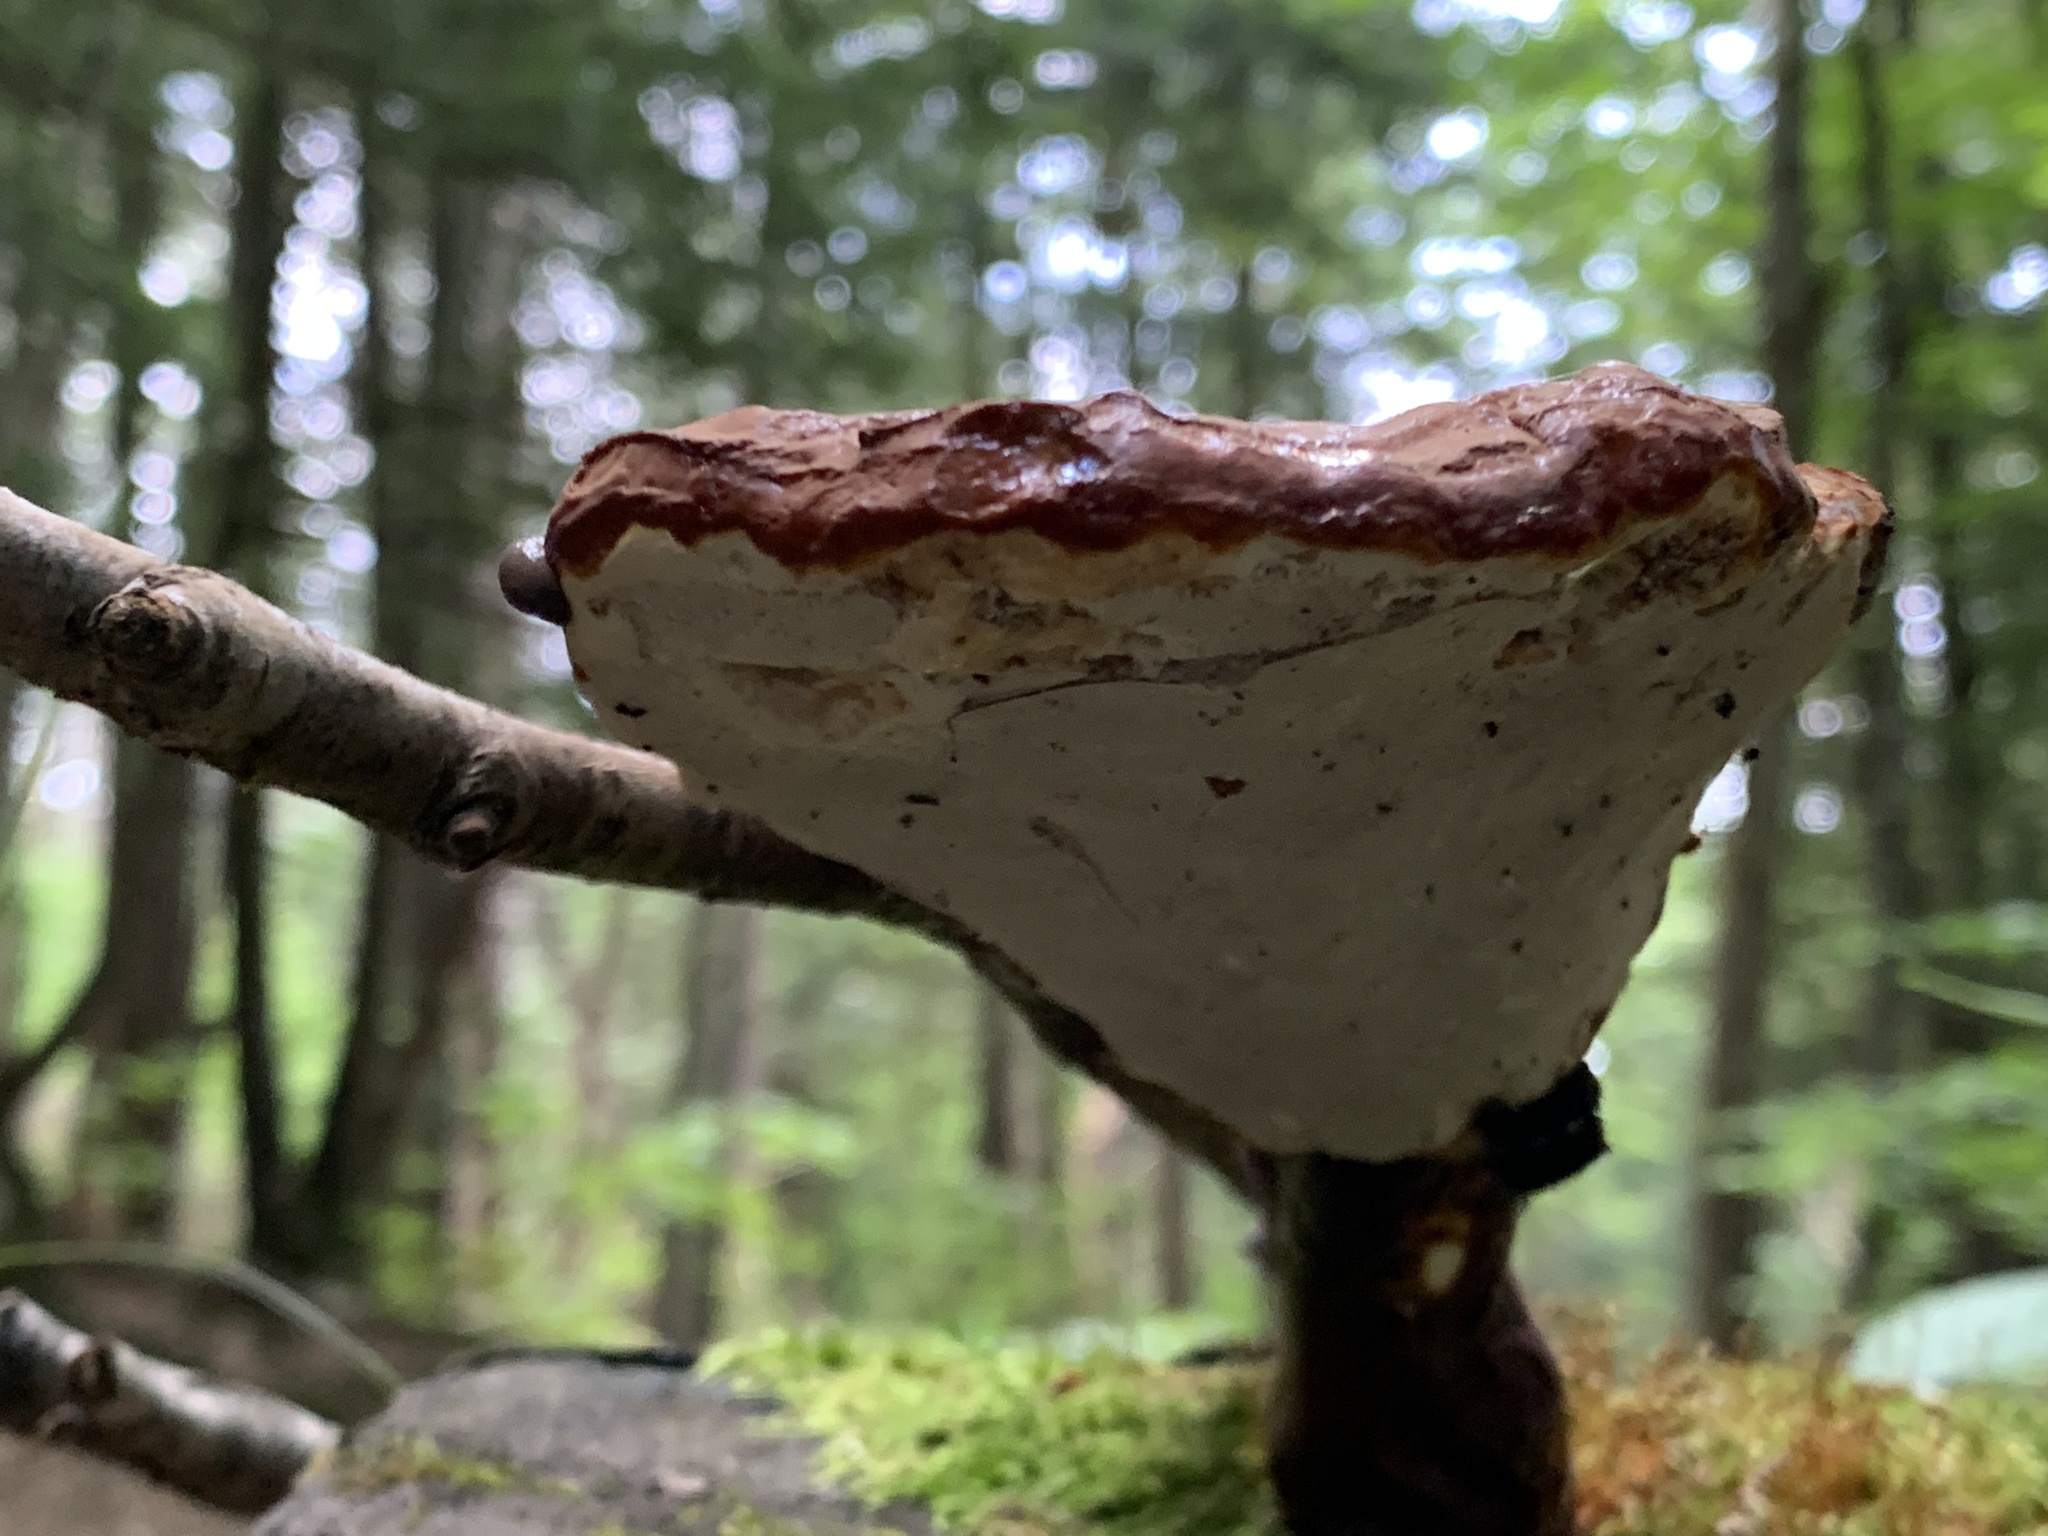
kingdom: Fungi
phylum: Basidiomycota
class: Agaricomycetes
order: Polyporales
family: Polyporaceae
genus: Ganoderma
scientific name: Ganoderma tsugae
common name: Hemlock varnish shelf
